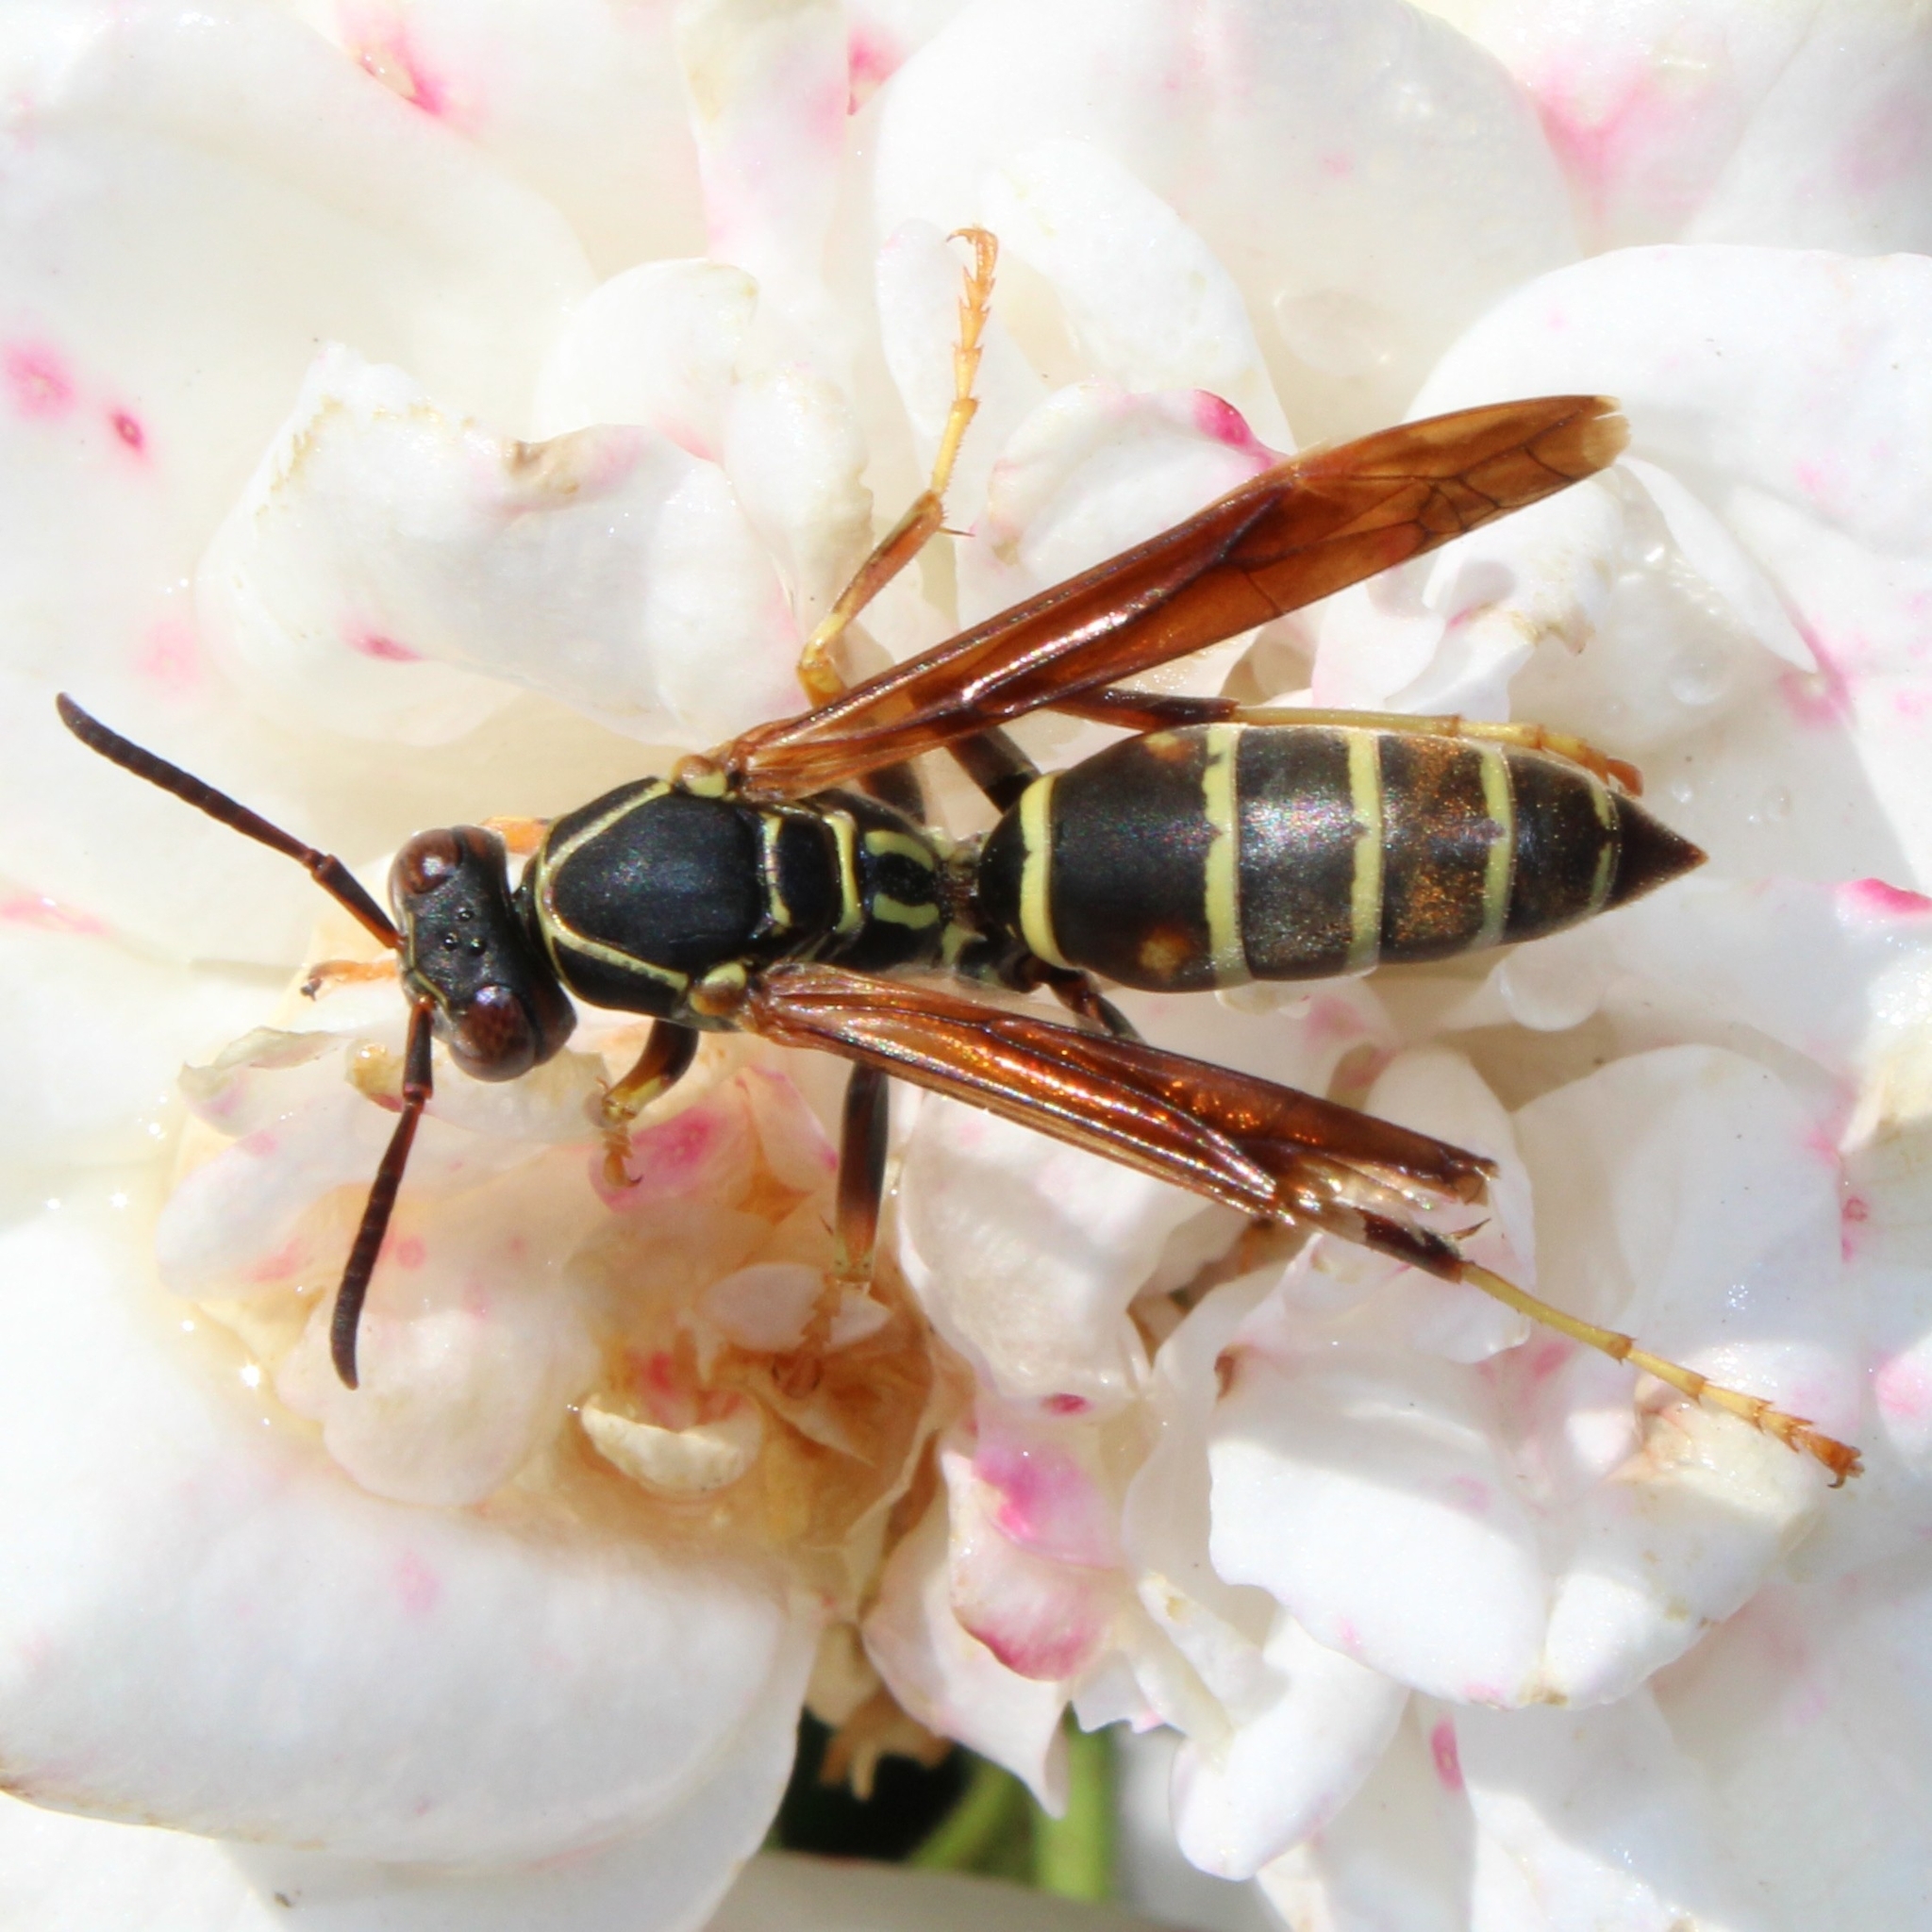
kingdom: Animalia
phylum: Arthropoda
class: Insecta
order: Hymenoptera
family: Eumenidae
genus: Polistes
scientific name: Polistes fuscatus
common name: Dark paper wasp
